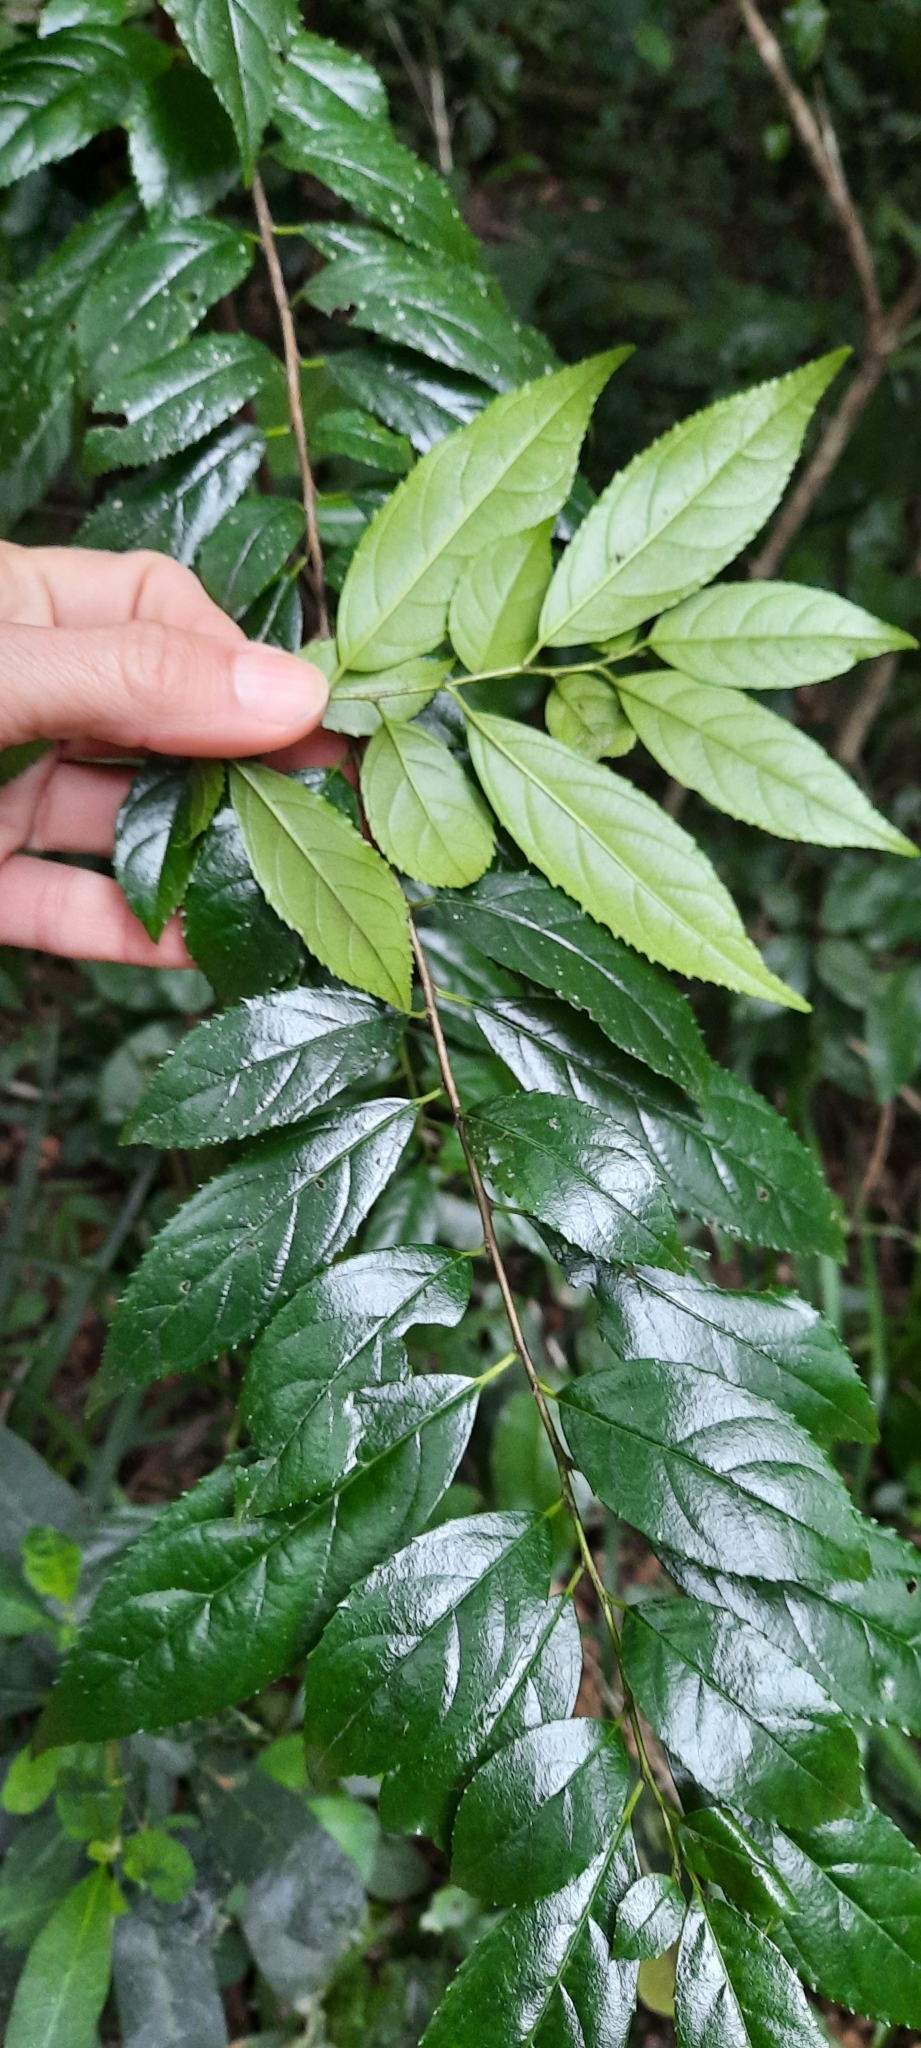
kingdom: Plantae
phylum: Tracheophyta
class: Magnoliopsida
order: Rosales
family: Rhamnaceae
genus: Rhamnus
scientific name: Rhamnus prinoides
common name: Dogwood
